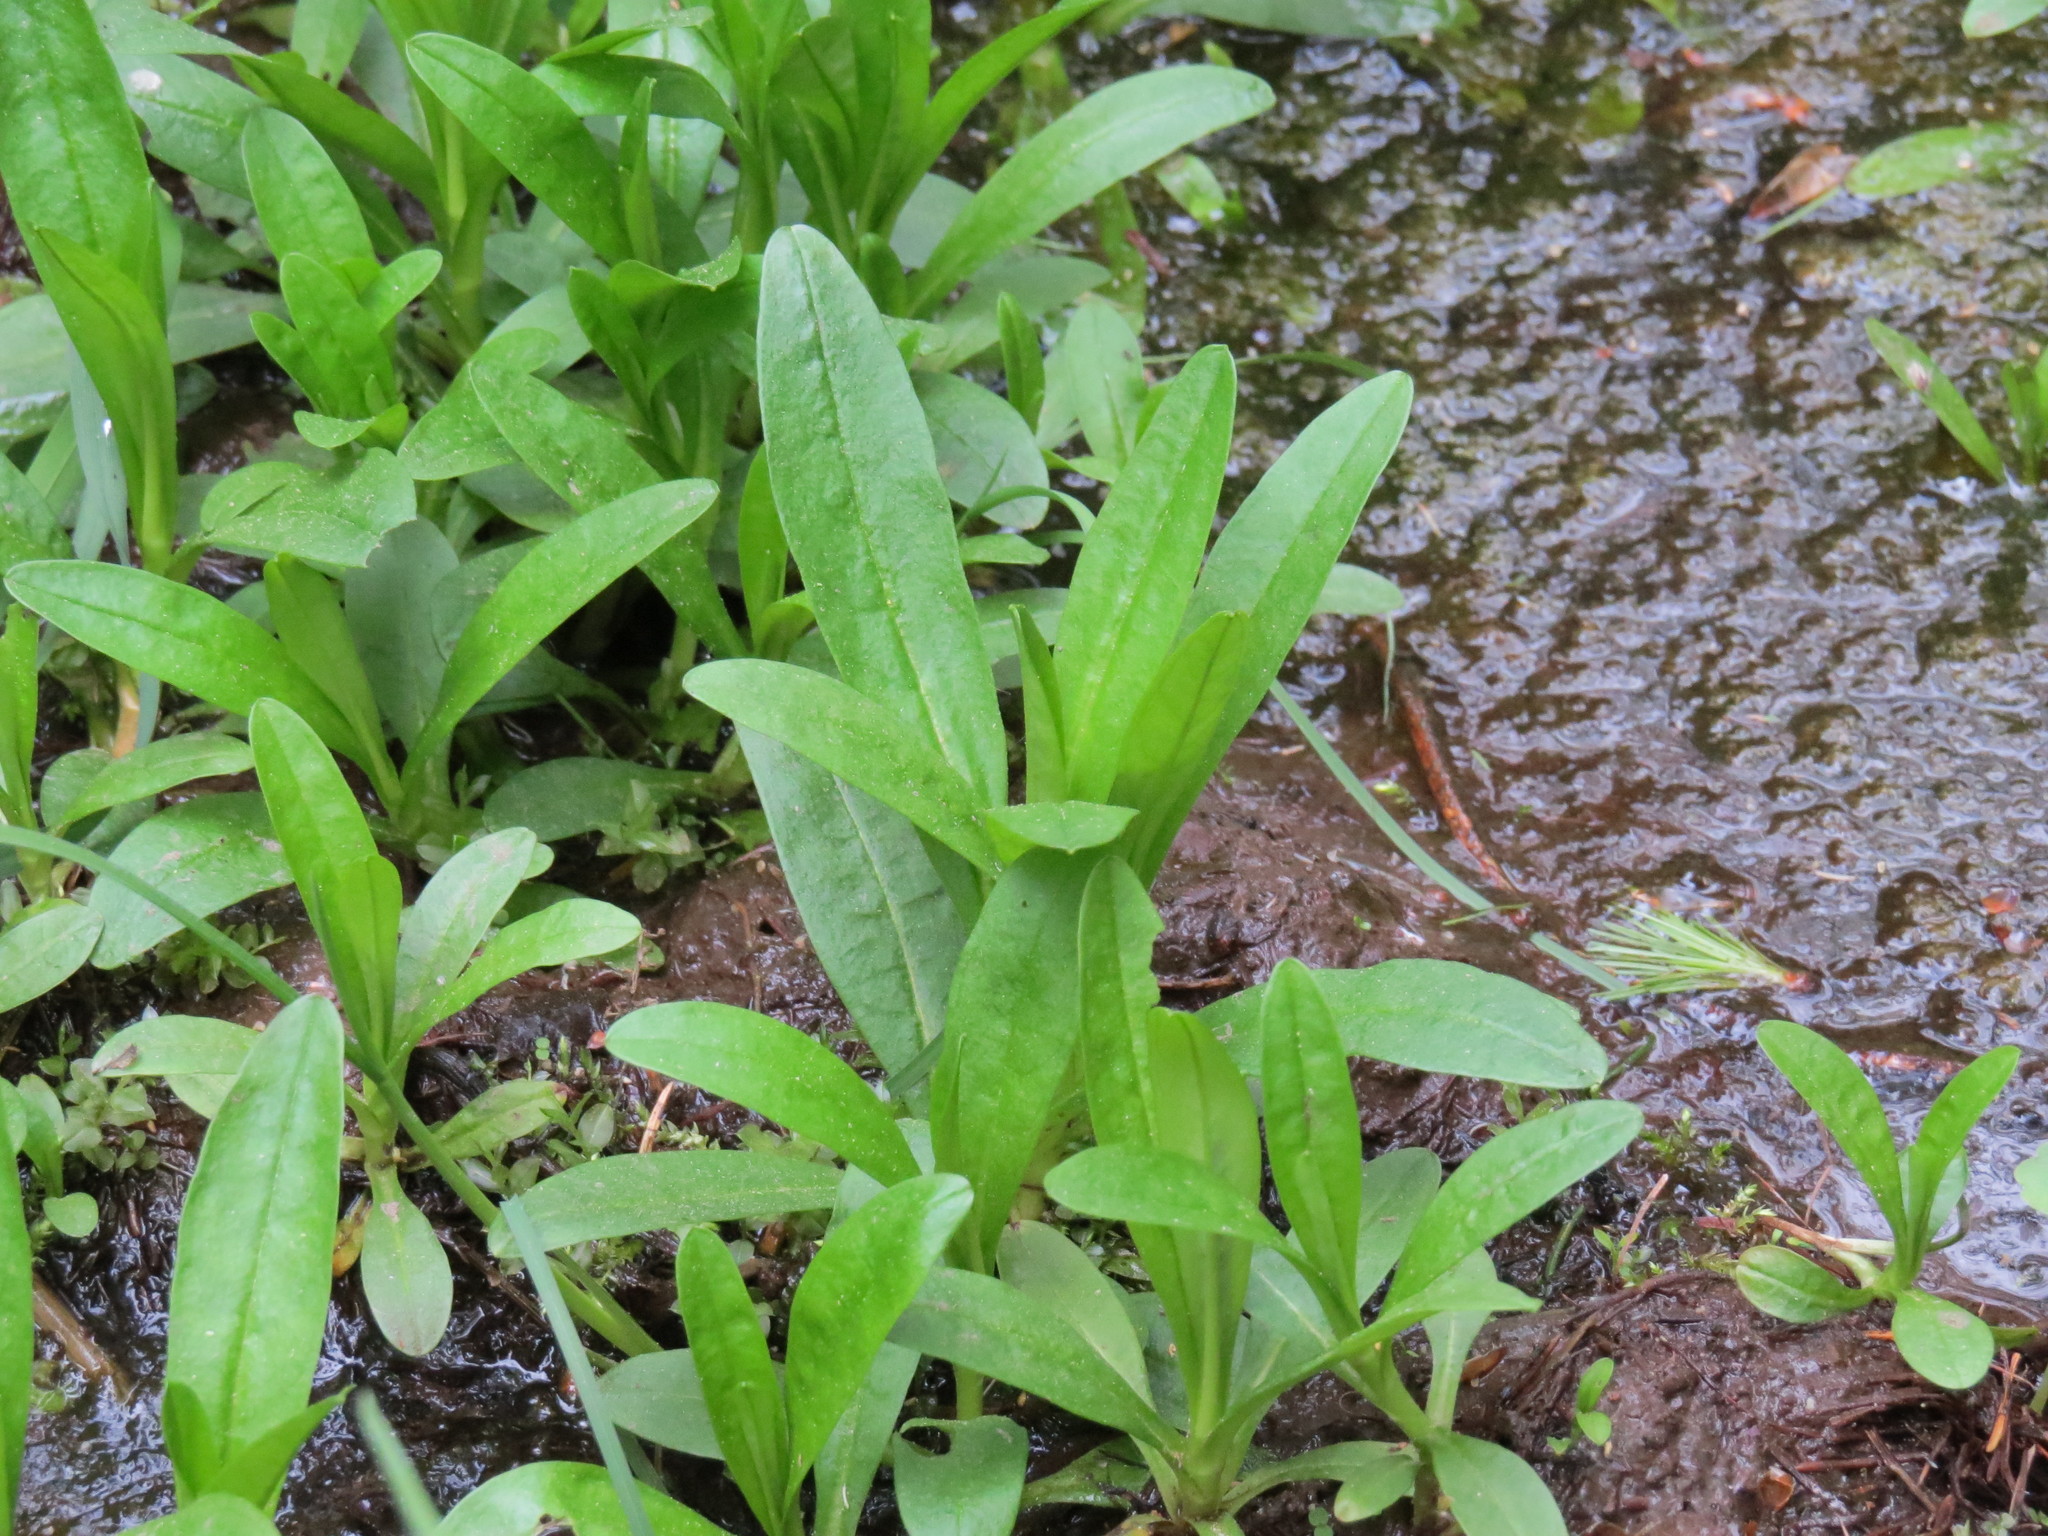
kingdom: Plantae
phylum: Tracheophyta
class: Magnoliopsida
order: Boraginales
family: Boraginaceae
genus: Myosotis
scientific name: Myosotis scorpioides
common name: Water forget-me-not
